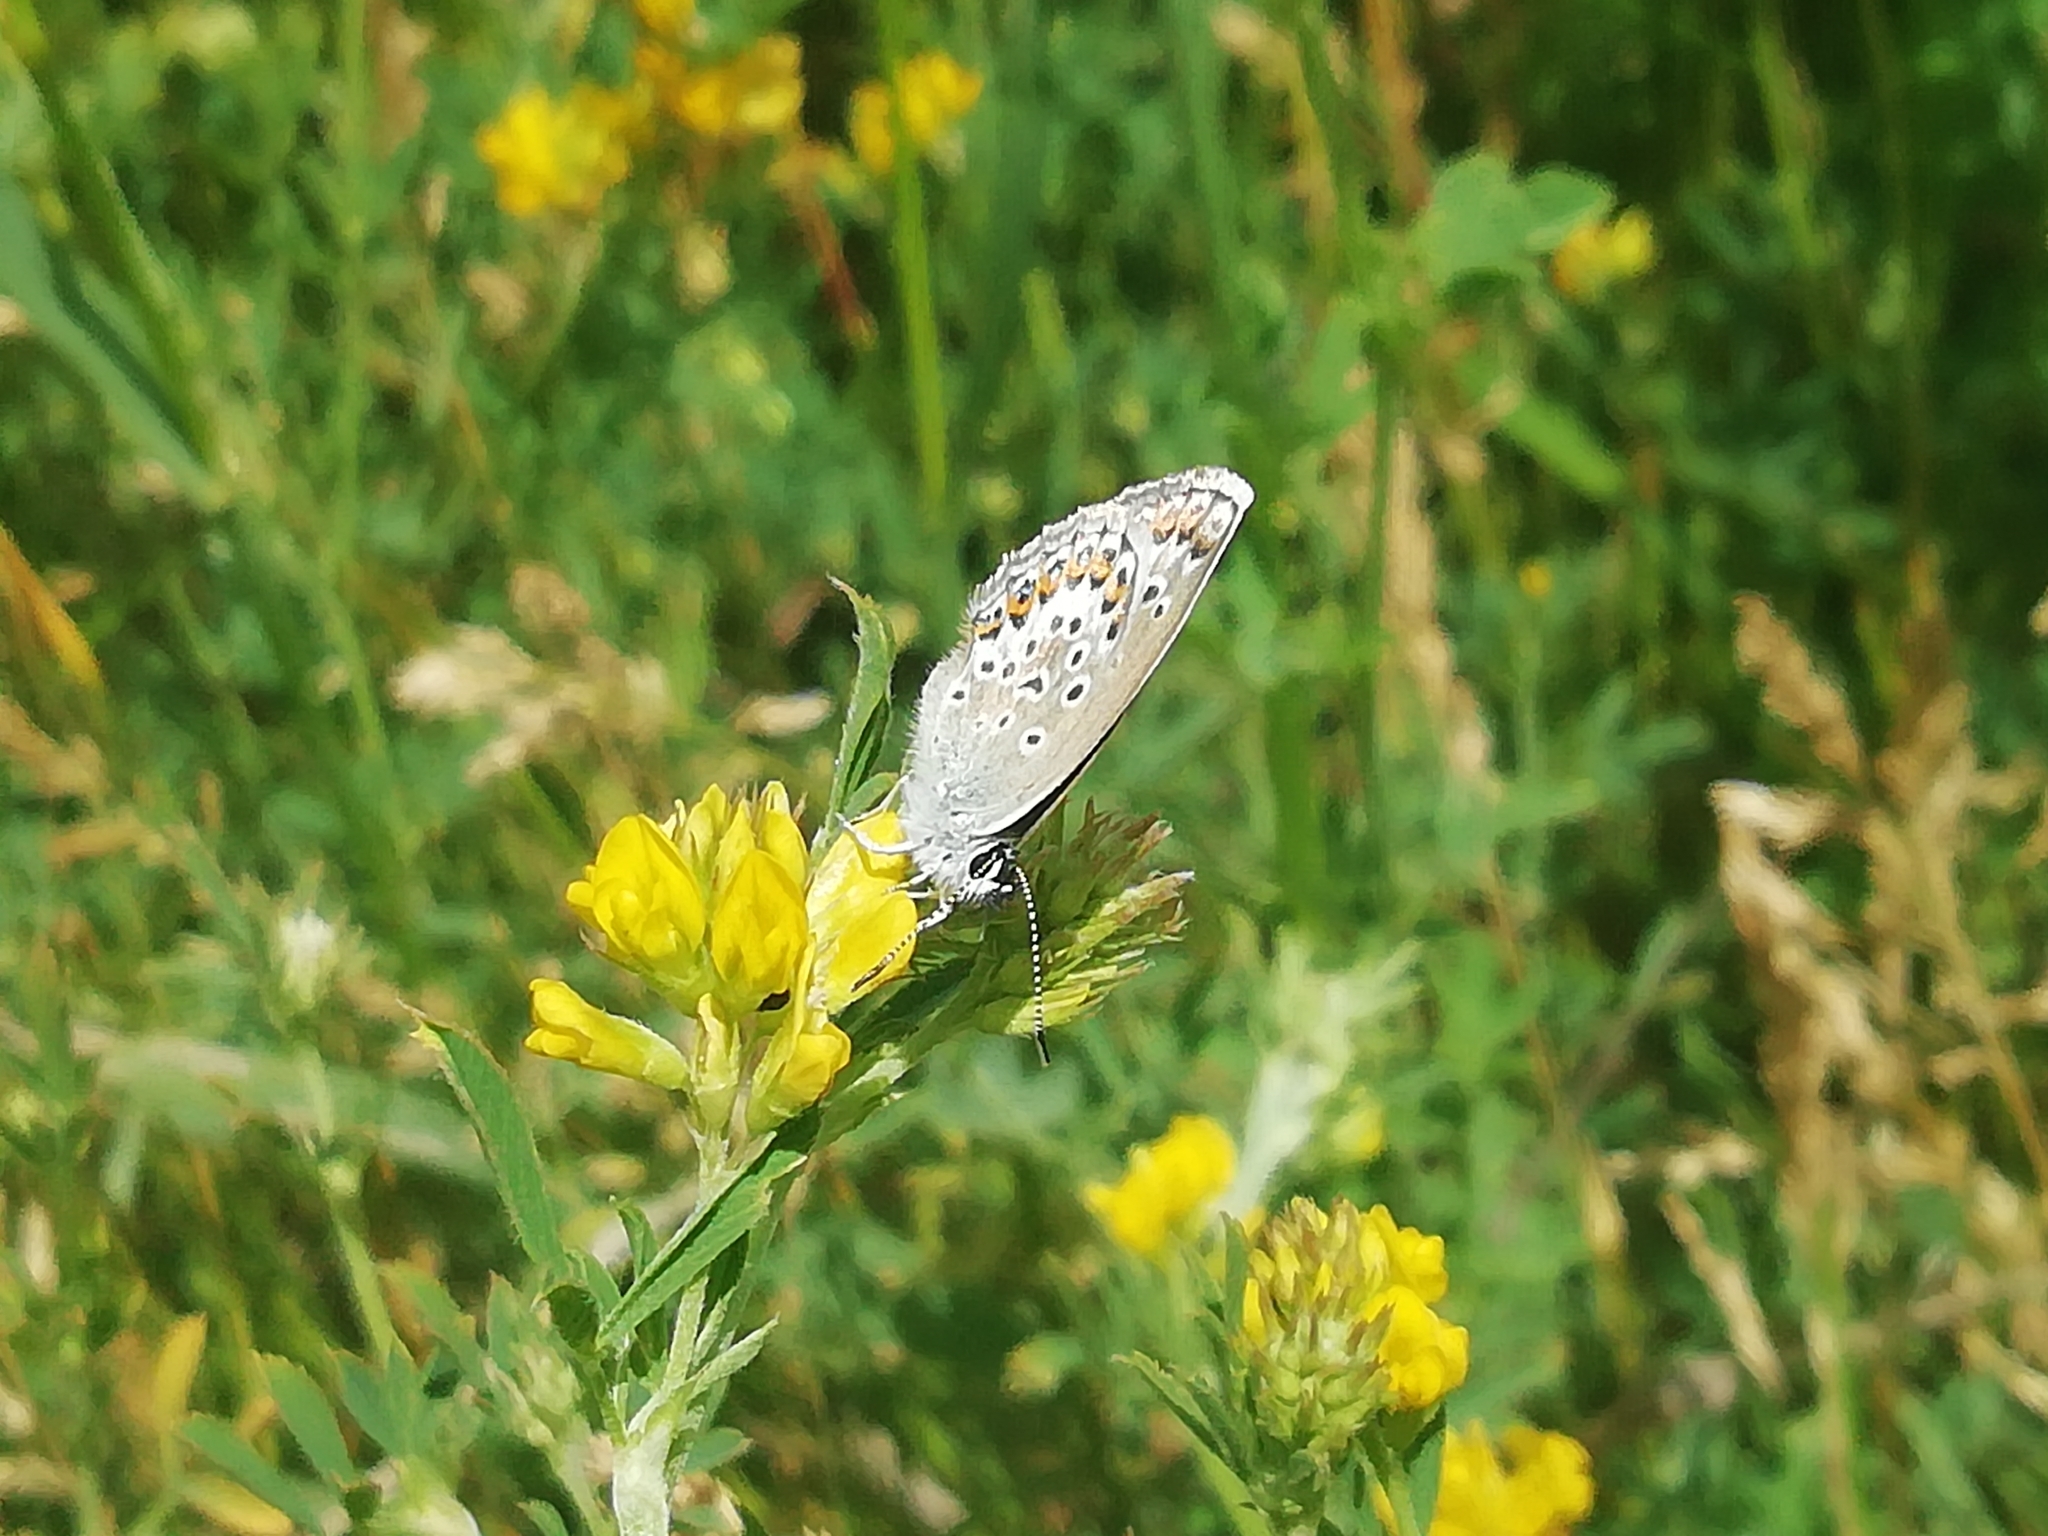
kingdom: Animalia
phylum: Arthropoda
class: Insecta
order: Lepidoptera
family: Lycaenidae
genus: Plebejus
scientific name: Plebejus argus
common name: Silver-studded blue
